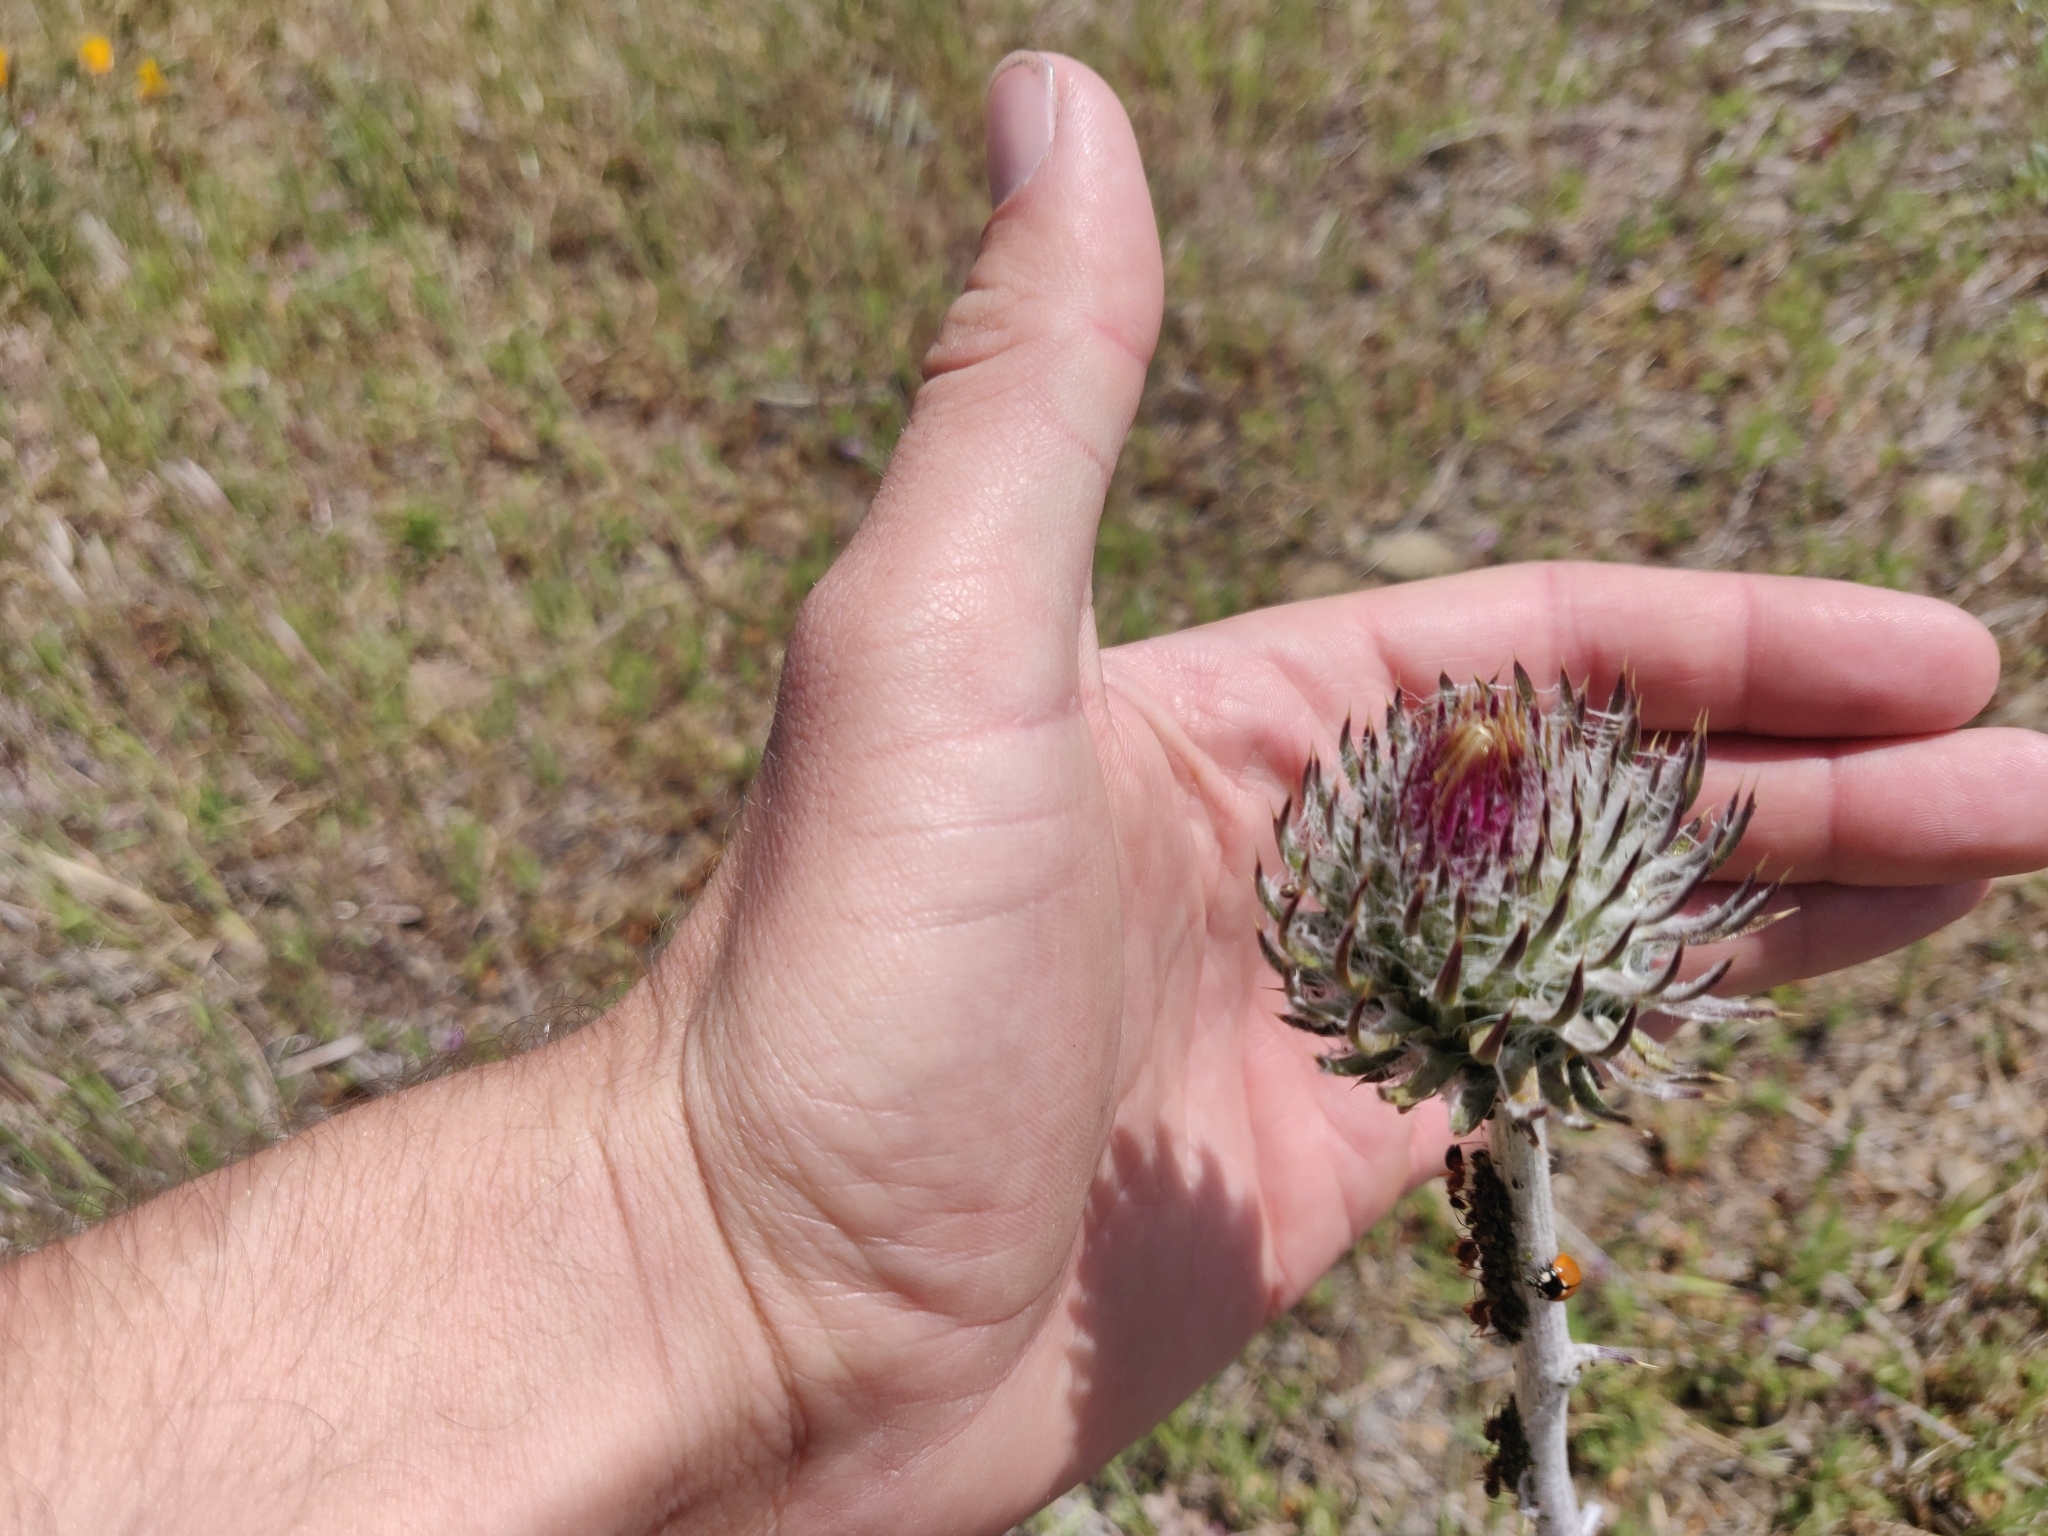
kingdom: Plantae
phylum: Tracheophyta
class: Magnoliopsida
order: Asterales
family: Asteraceae
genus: Cirsium
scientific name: Cirsium occidentale
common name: Western thistle
